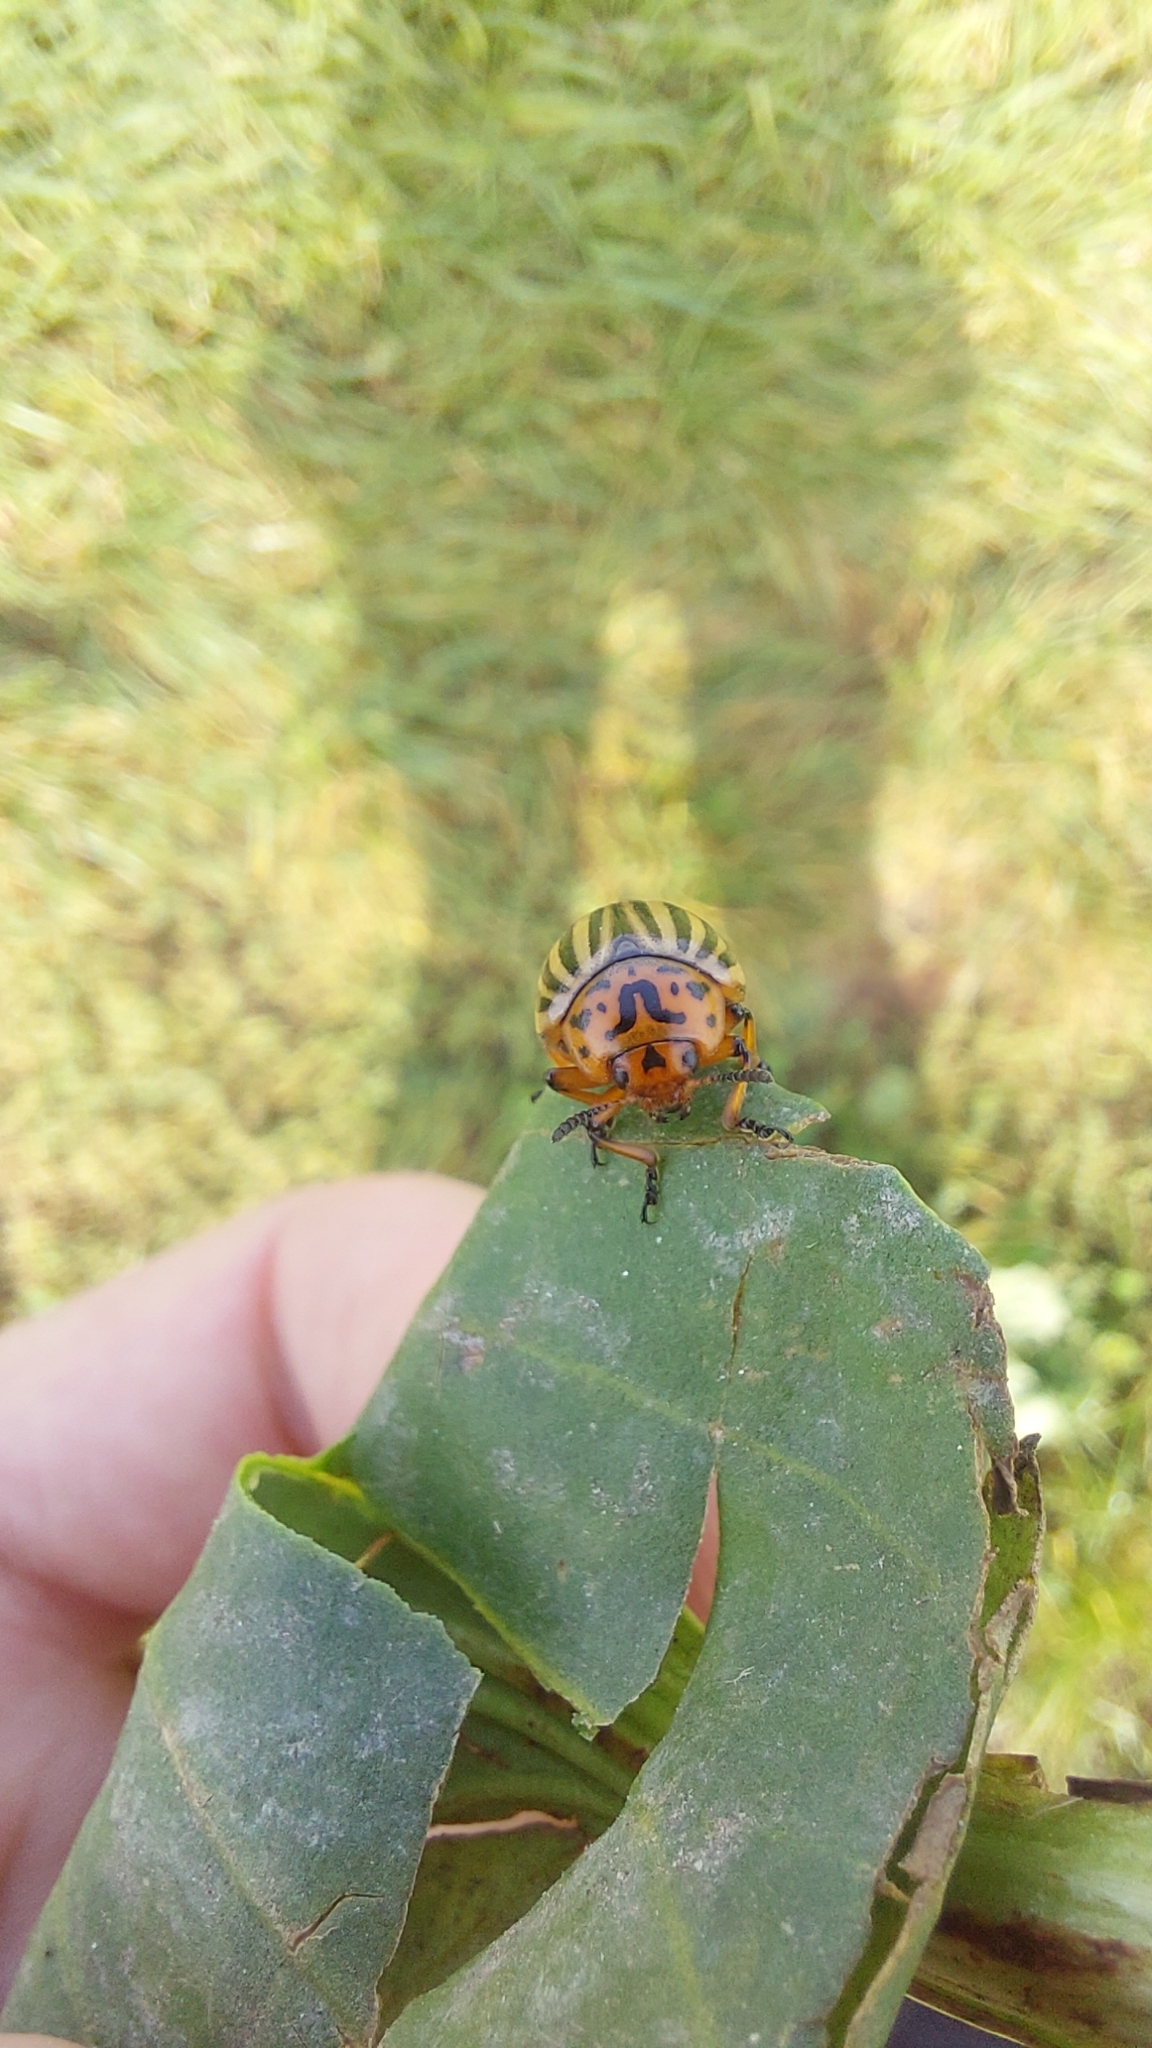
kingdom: Animalia
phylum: Arthropoda
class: Insecta
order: Coleoptera
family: Chrysomelidae
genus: Leptinotarsa
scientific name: Leptinotarsa decemlineata
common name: Colorado potato beetle
